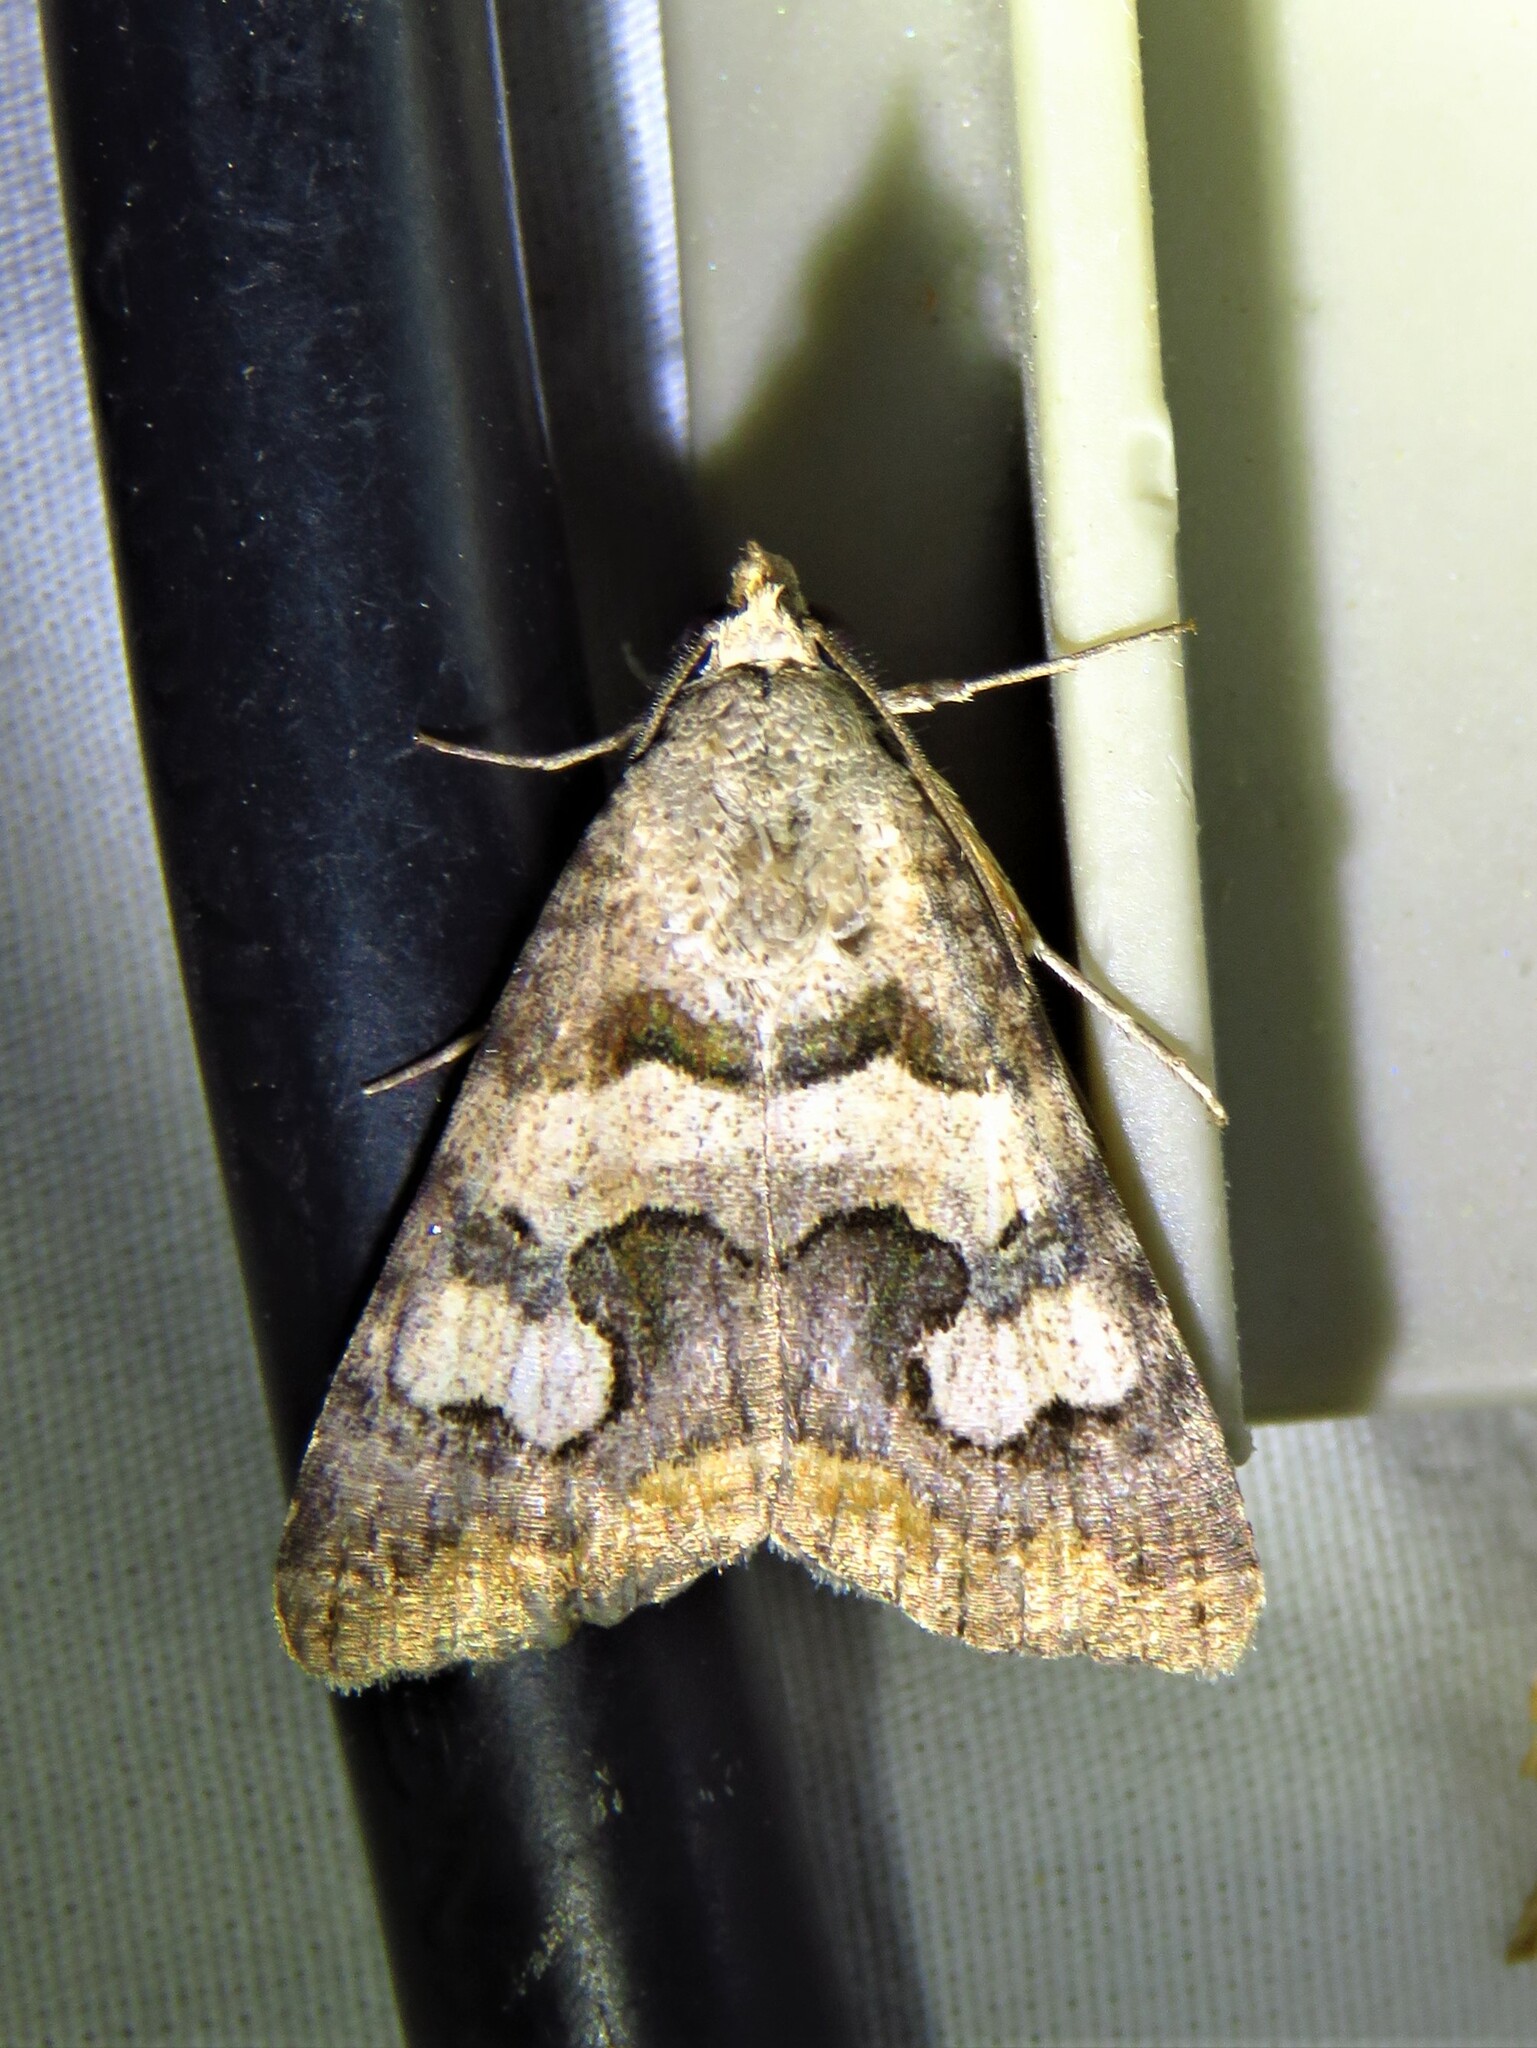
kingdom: Animalia
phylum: Arthropoda
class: Insecta
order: Lepidoptera
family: Erebidae
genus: Bulia
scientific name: Bulia deducta
